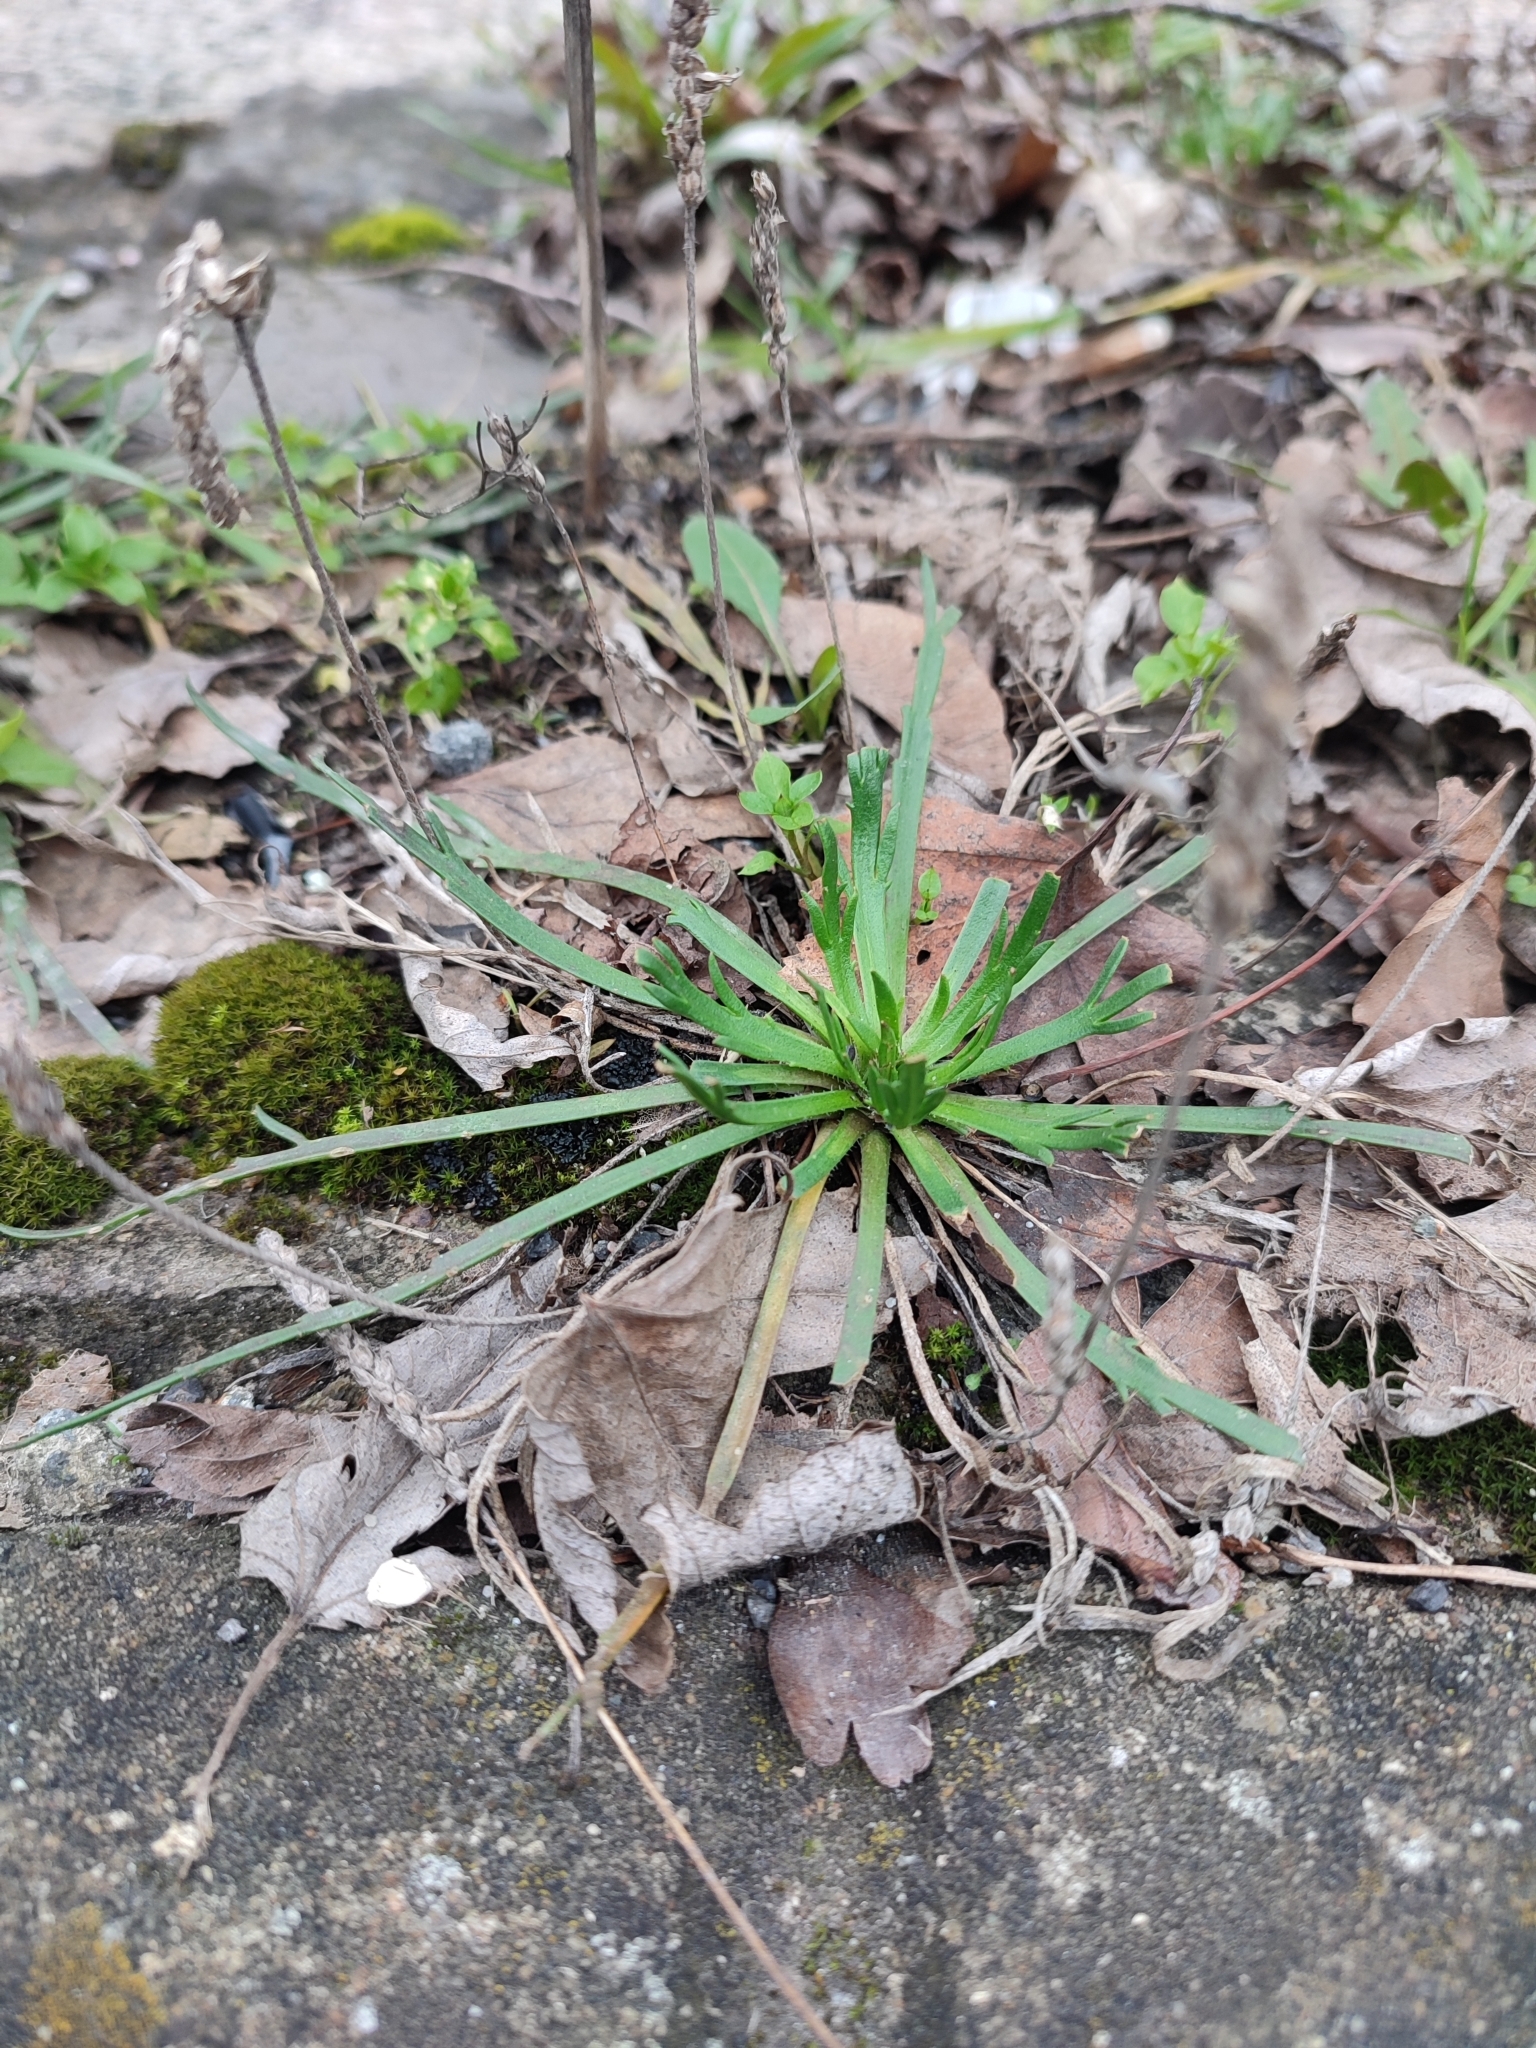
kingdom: Plantae
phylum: Tracheophyta
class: Magnoliopsida
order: Lamiales
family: Plantaginaceae
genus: Plantago
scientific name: Plantago coronopus
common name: Buck's-horn plantain
